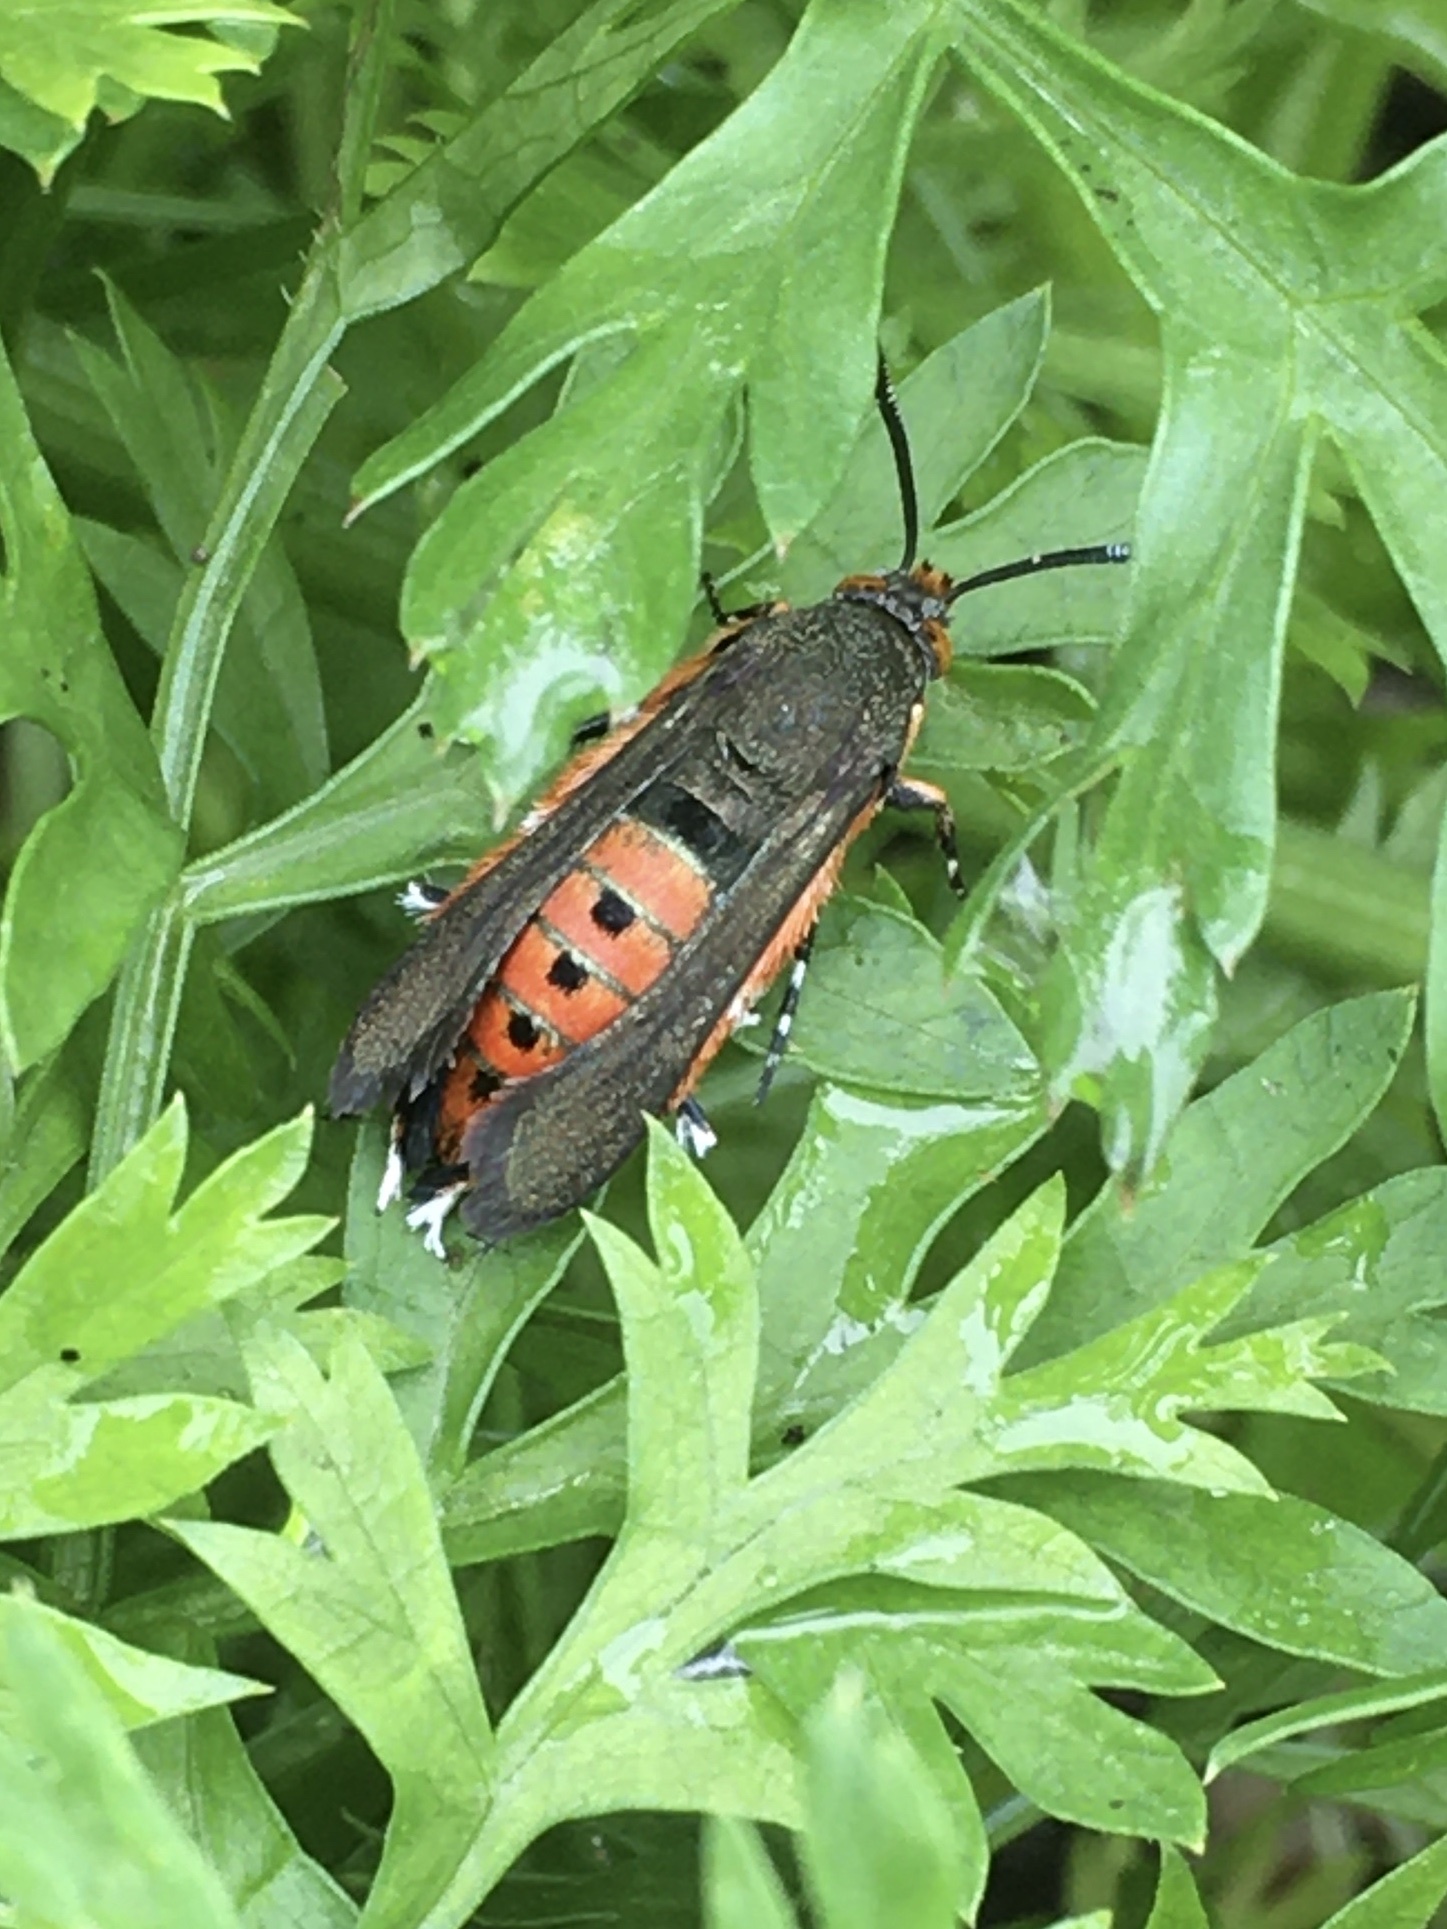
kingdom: Animalia
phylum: Arthropoda
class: Insecta
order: Lepidoptera
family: Sesiidae
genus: Eichlinia
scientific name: Eichlinia cucurbitae
